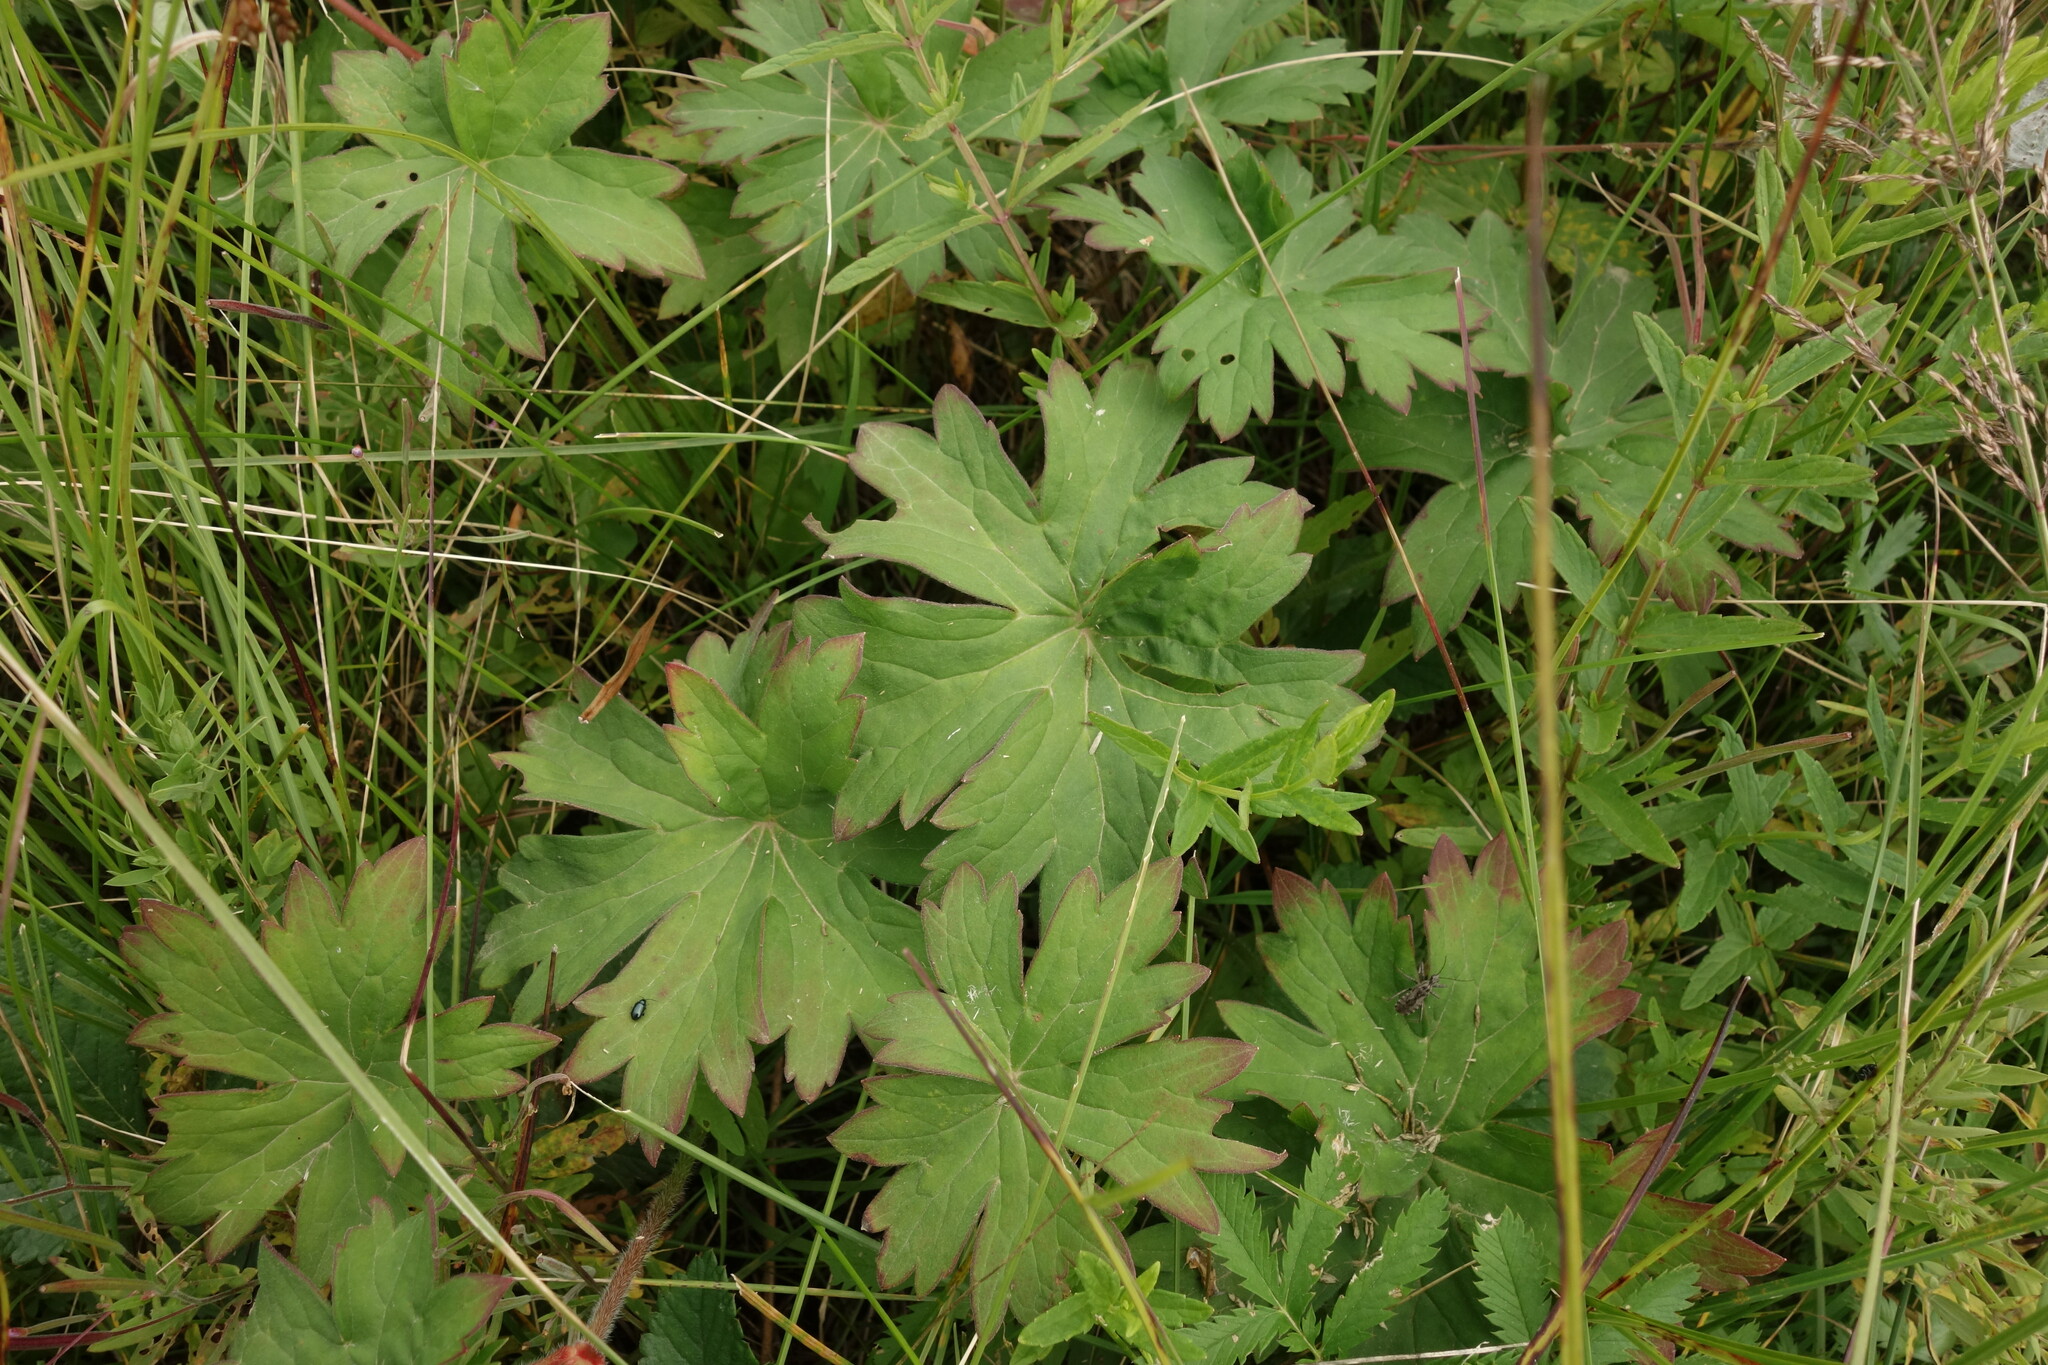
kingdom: Plantae
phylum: Tracheophyta
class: Magnoliopsida
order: Geraniales
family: Geraniaceae
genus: Geranium
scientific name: Geranium wlassovianum
